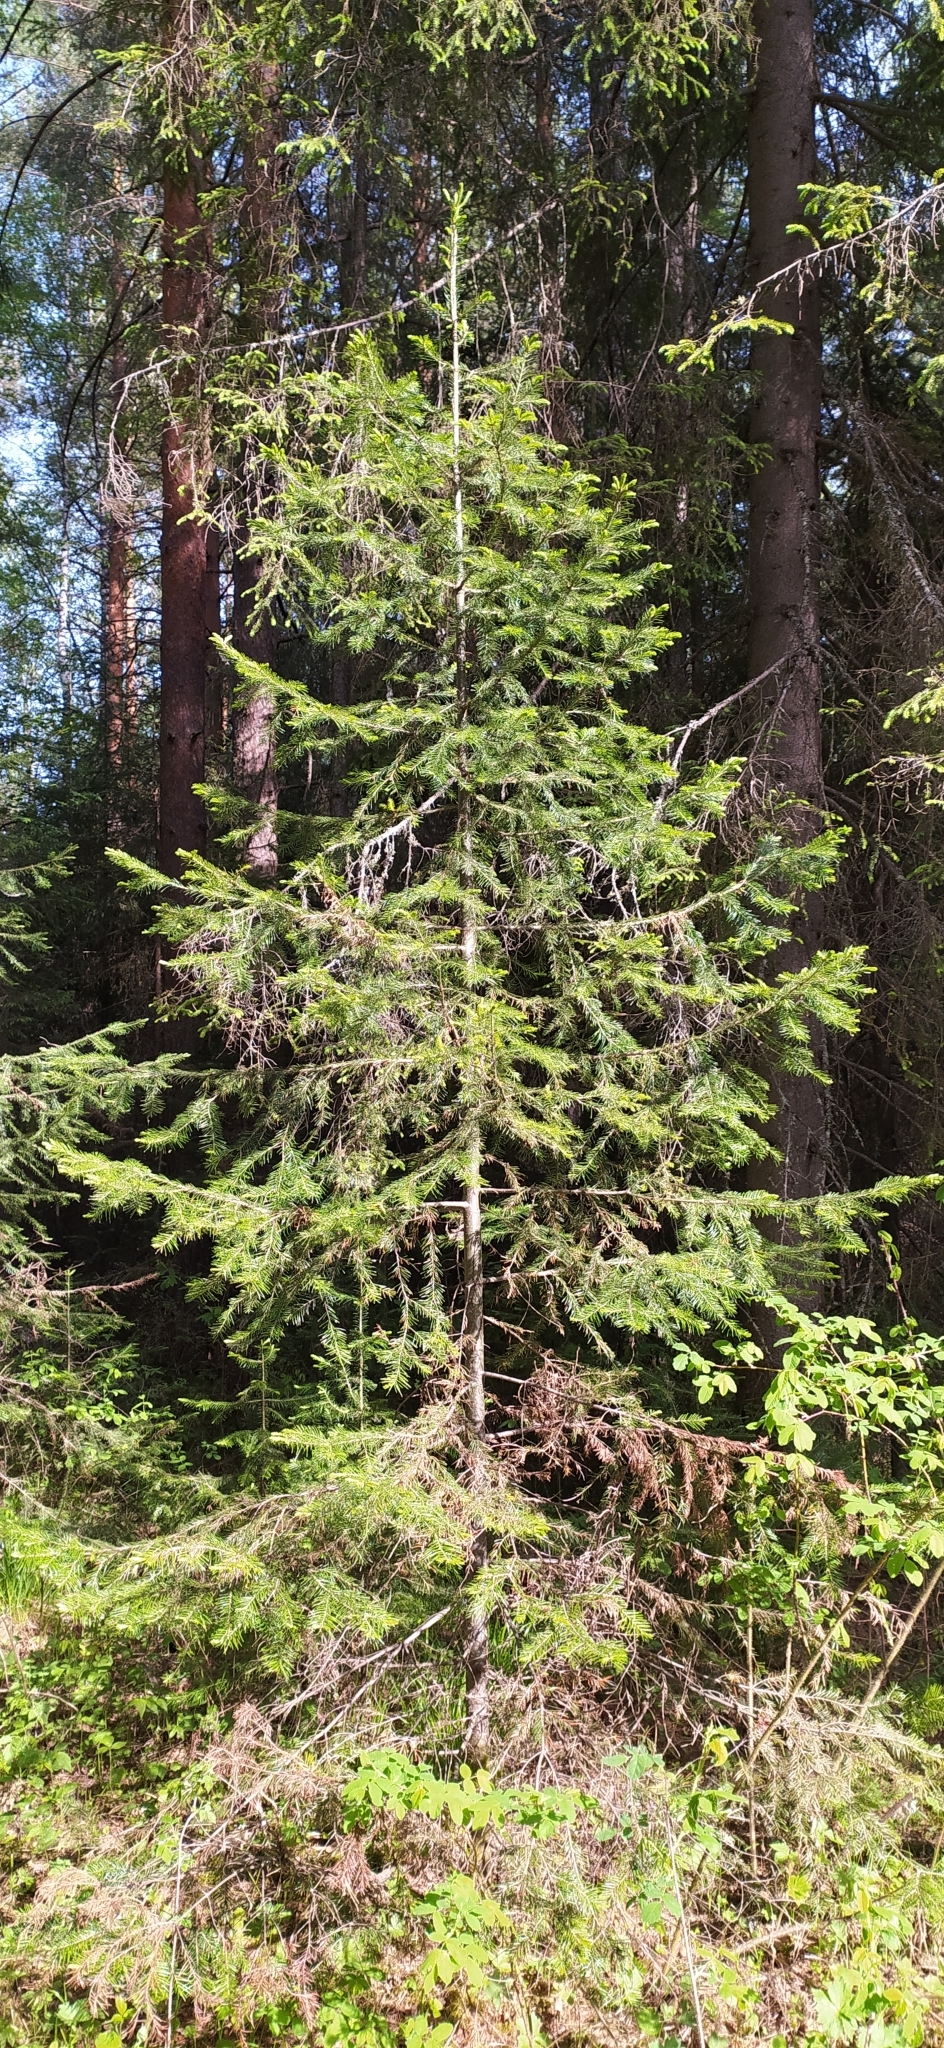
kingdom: Plantae
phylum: Tracheophyta
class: Pinopsida
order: Pinales
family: Pinaceae
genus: Abies
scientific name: Abies sibirica
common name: Siberian fir
